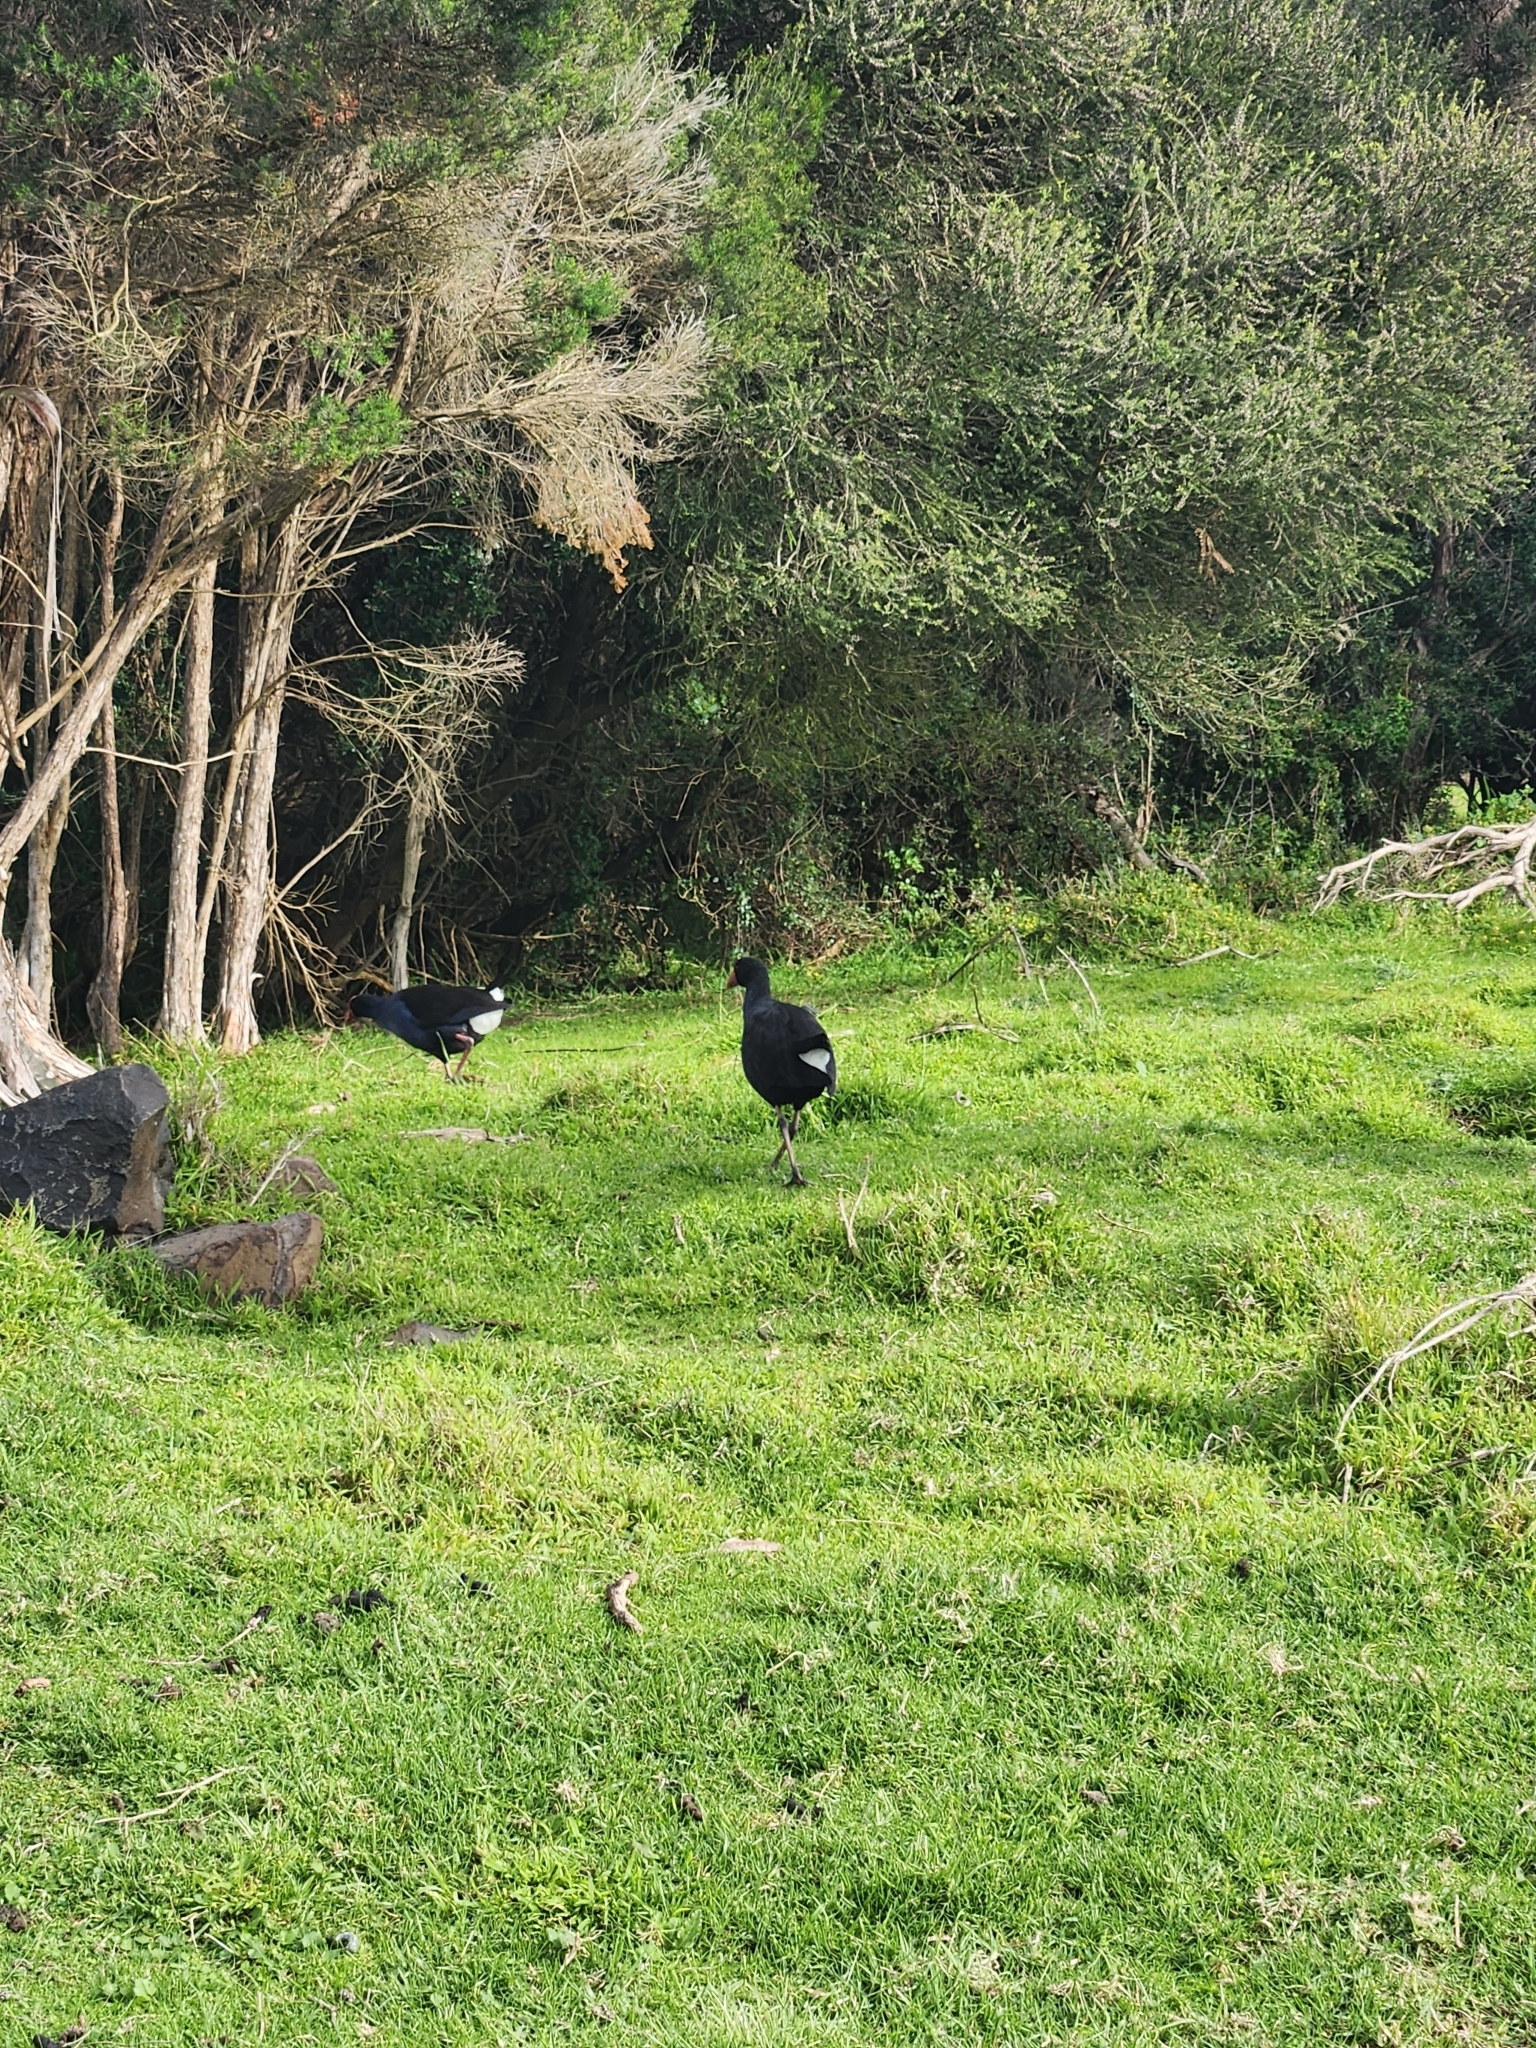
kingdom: Animalia
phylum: Chordata
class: Aves
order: Gruiformes
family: Rallidae
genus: Porphyrio
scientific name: Porphyrio melanotus
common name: Australasian swamphen
